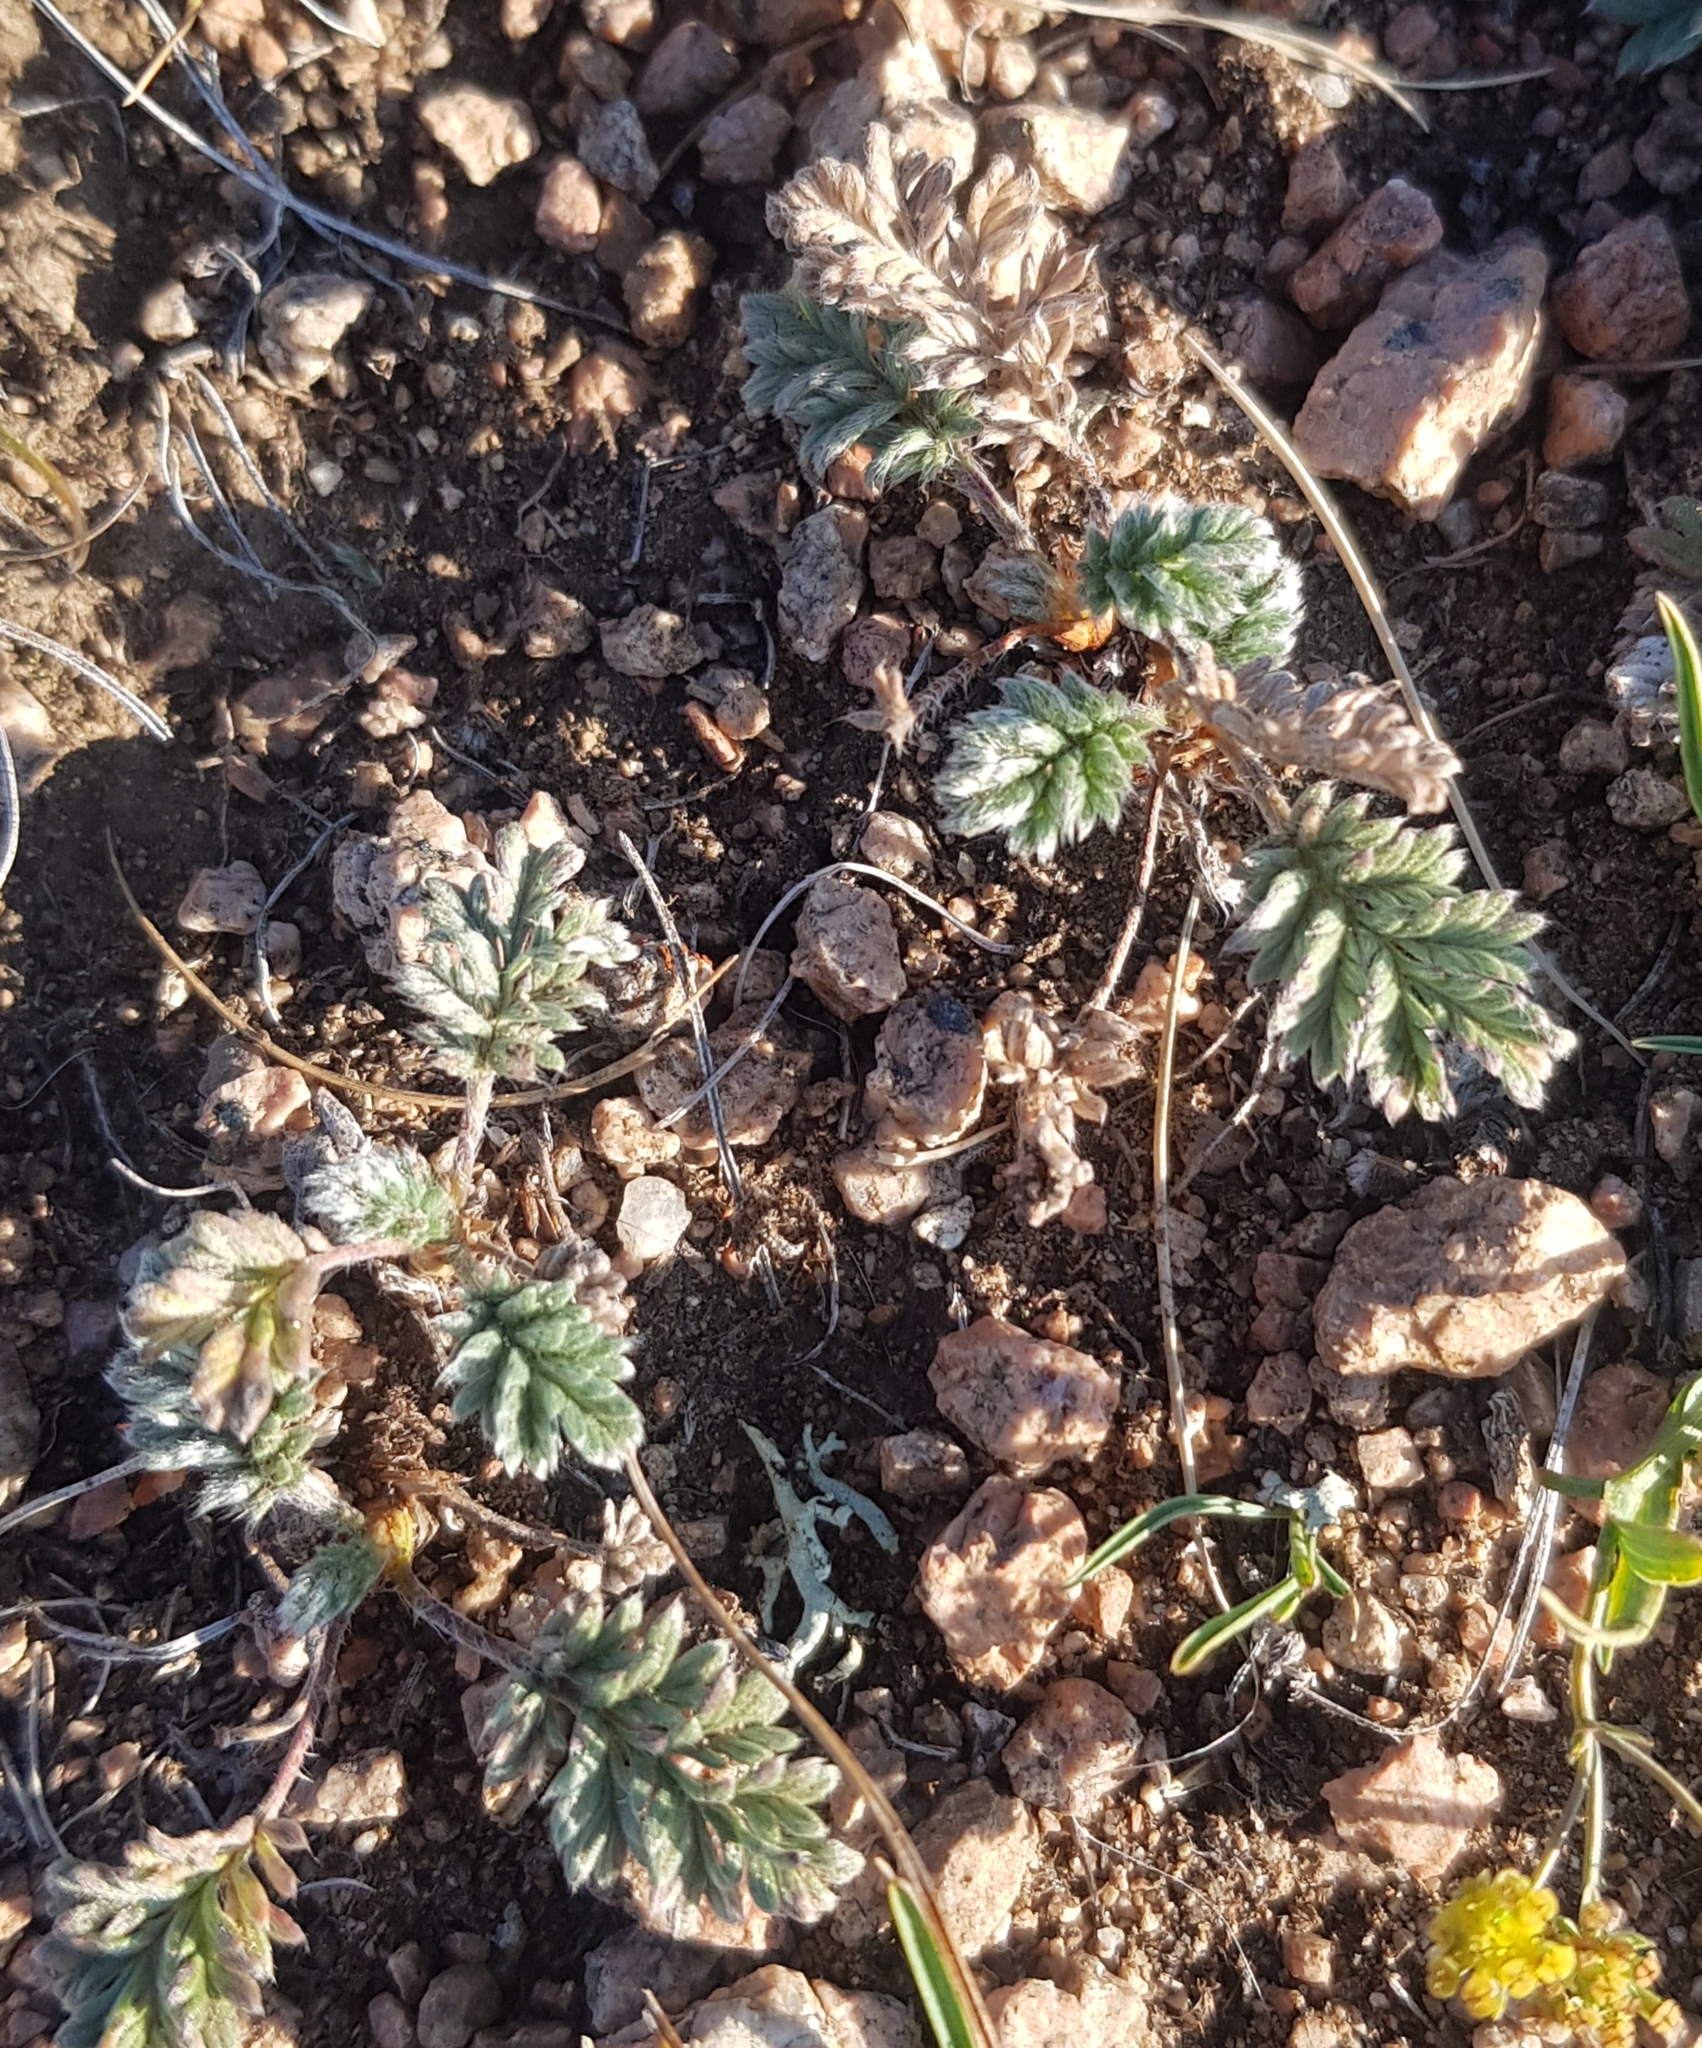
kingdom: Plantae
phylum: Tracheophyta
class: Magnoliopsida
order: Rosales
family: Rosaceae
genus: Potentilla
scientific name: Potentilla sericea
